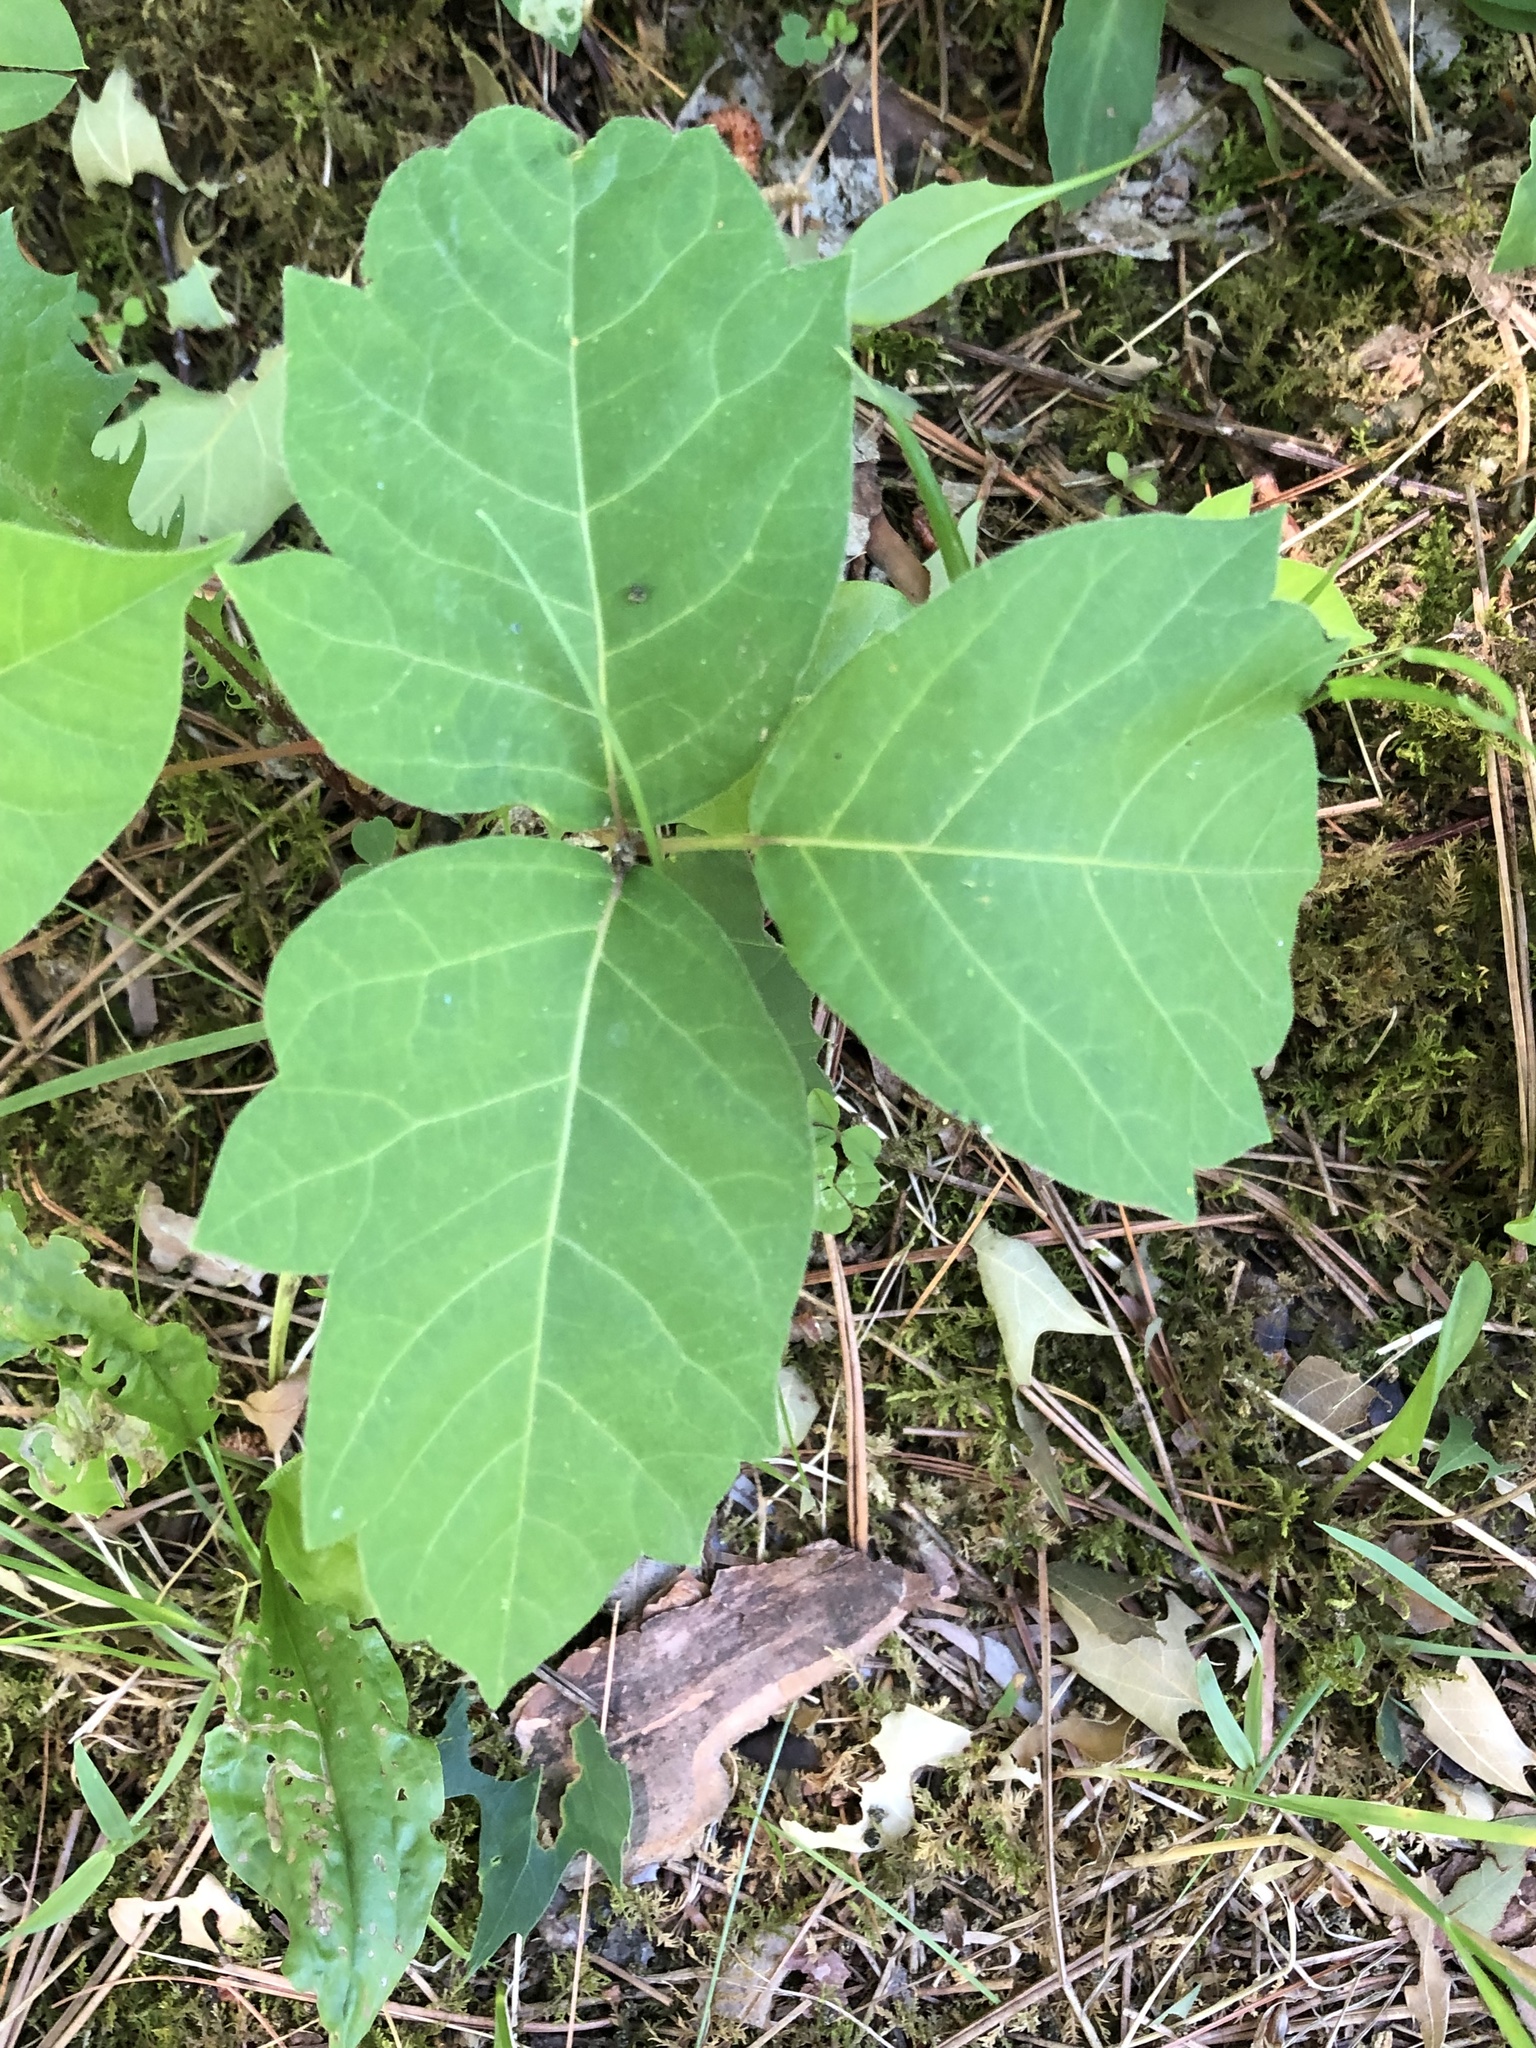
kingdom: Plantae
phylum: Tracheophyta
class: Magnoliopsida
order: Sapindales
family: Anacardiaceae
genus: Toxicodendron
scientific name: Toxicodendron rydbergii
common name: Rydberg's poison-ivy
